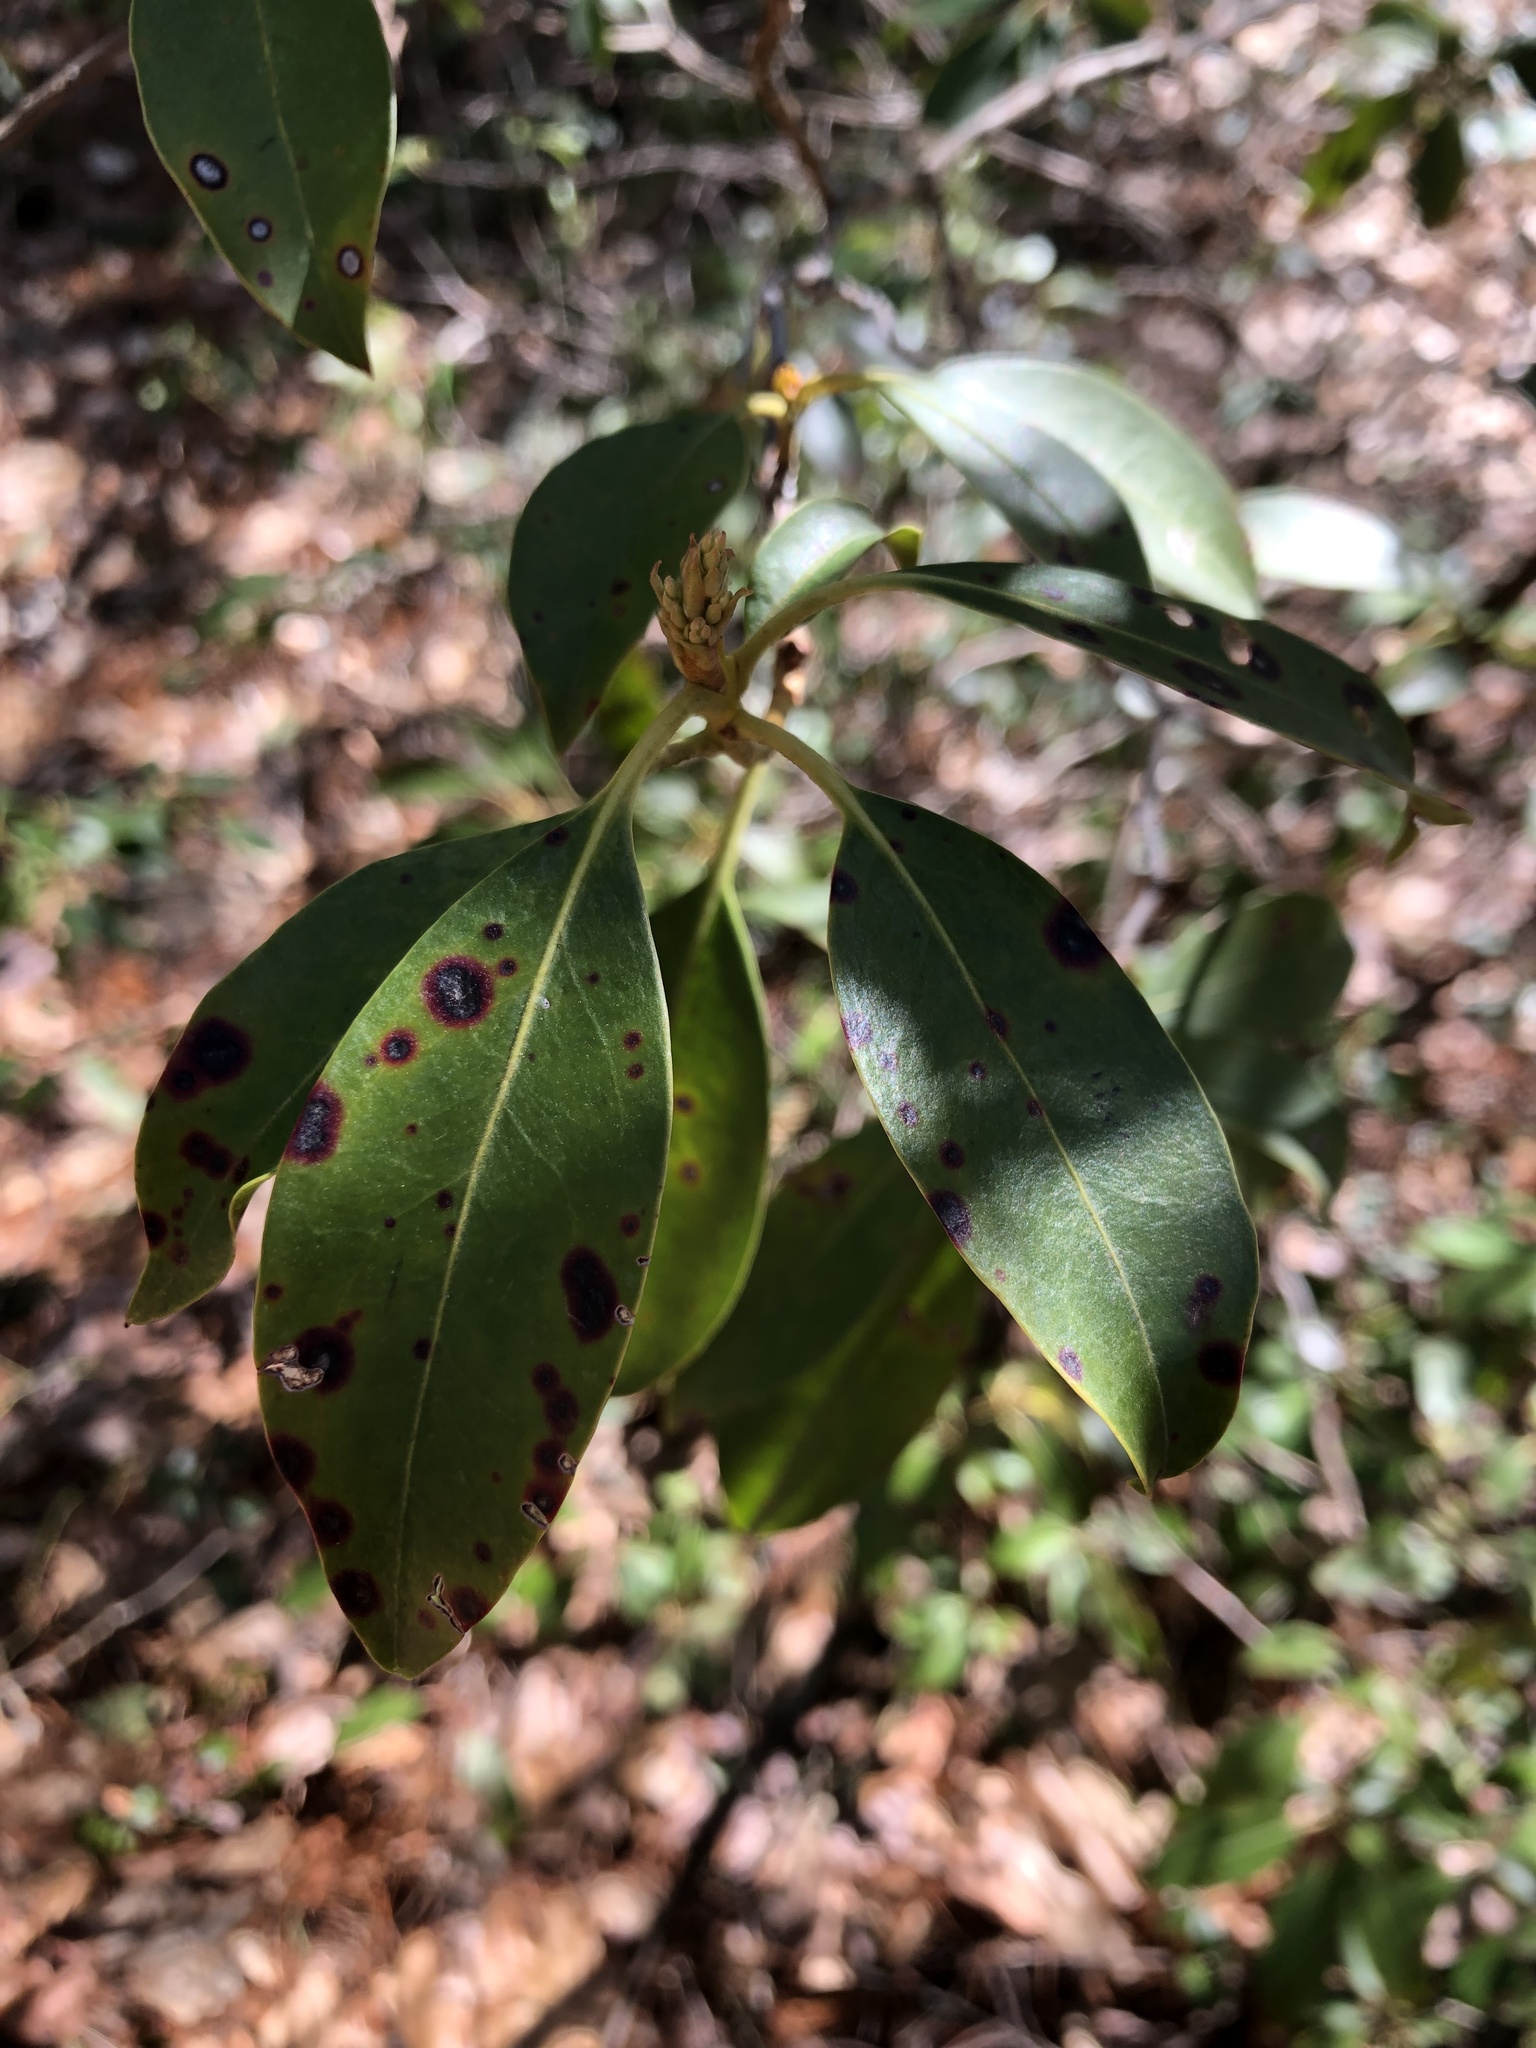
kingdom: Plantae
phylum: Tracheophyta
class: Magnoliopsida
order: Ericales
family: Ericaceae
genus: Kalmia
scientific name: Kalmia latifolia
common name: Mountain-laurel
